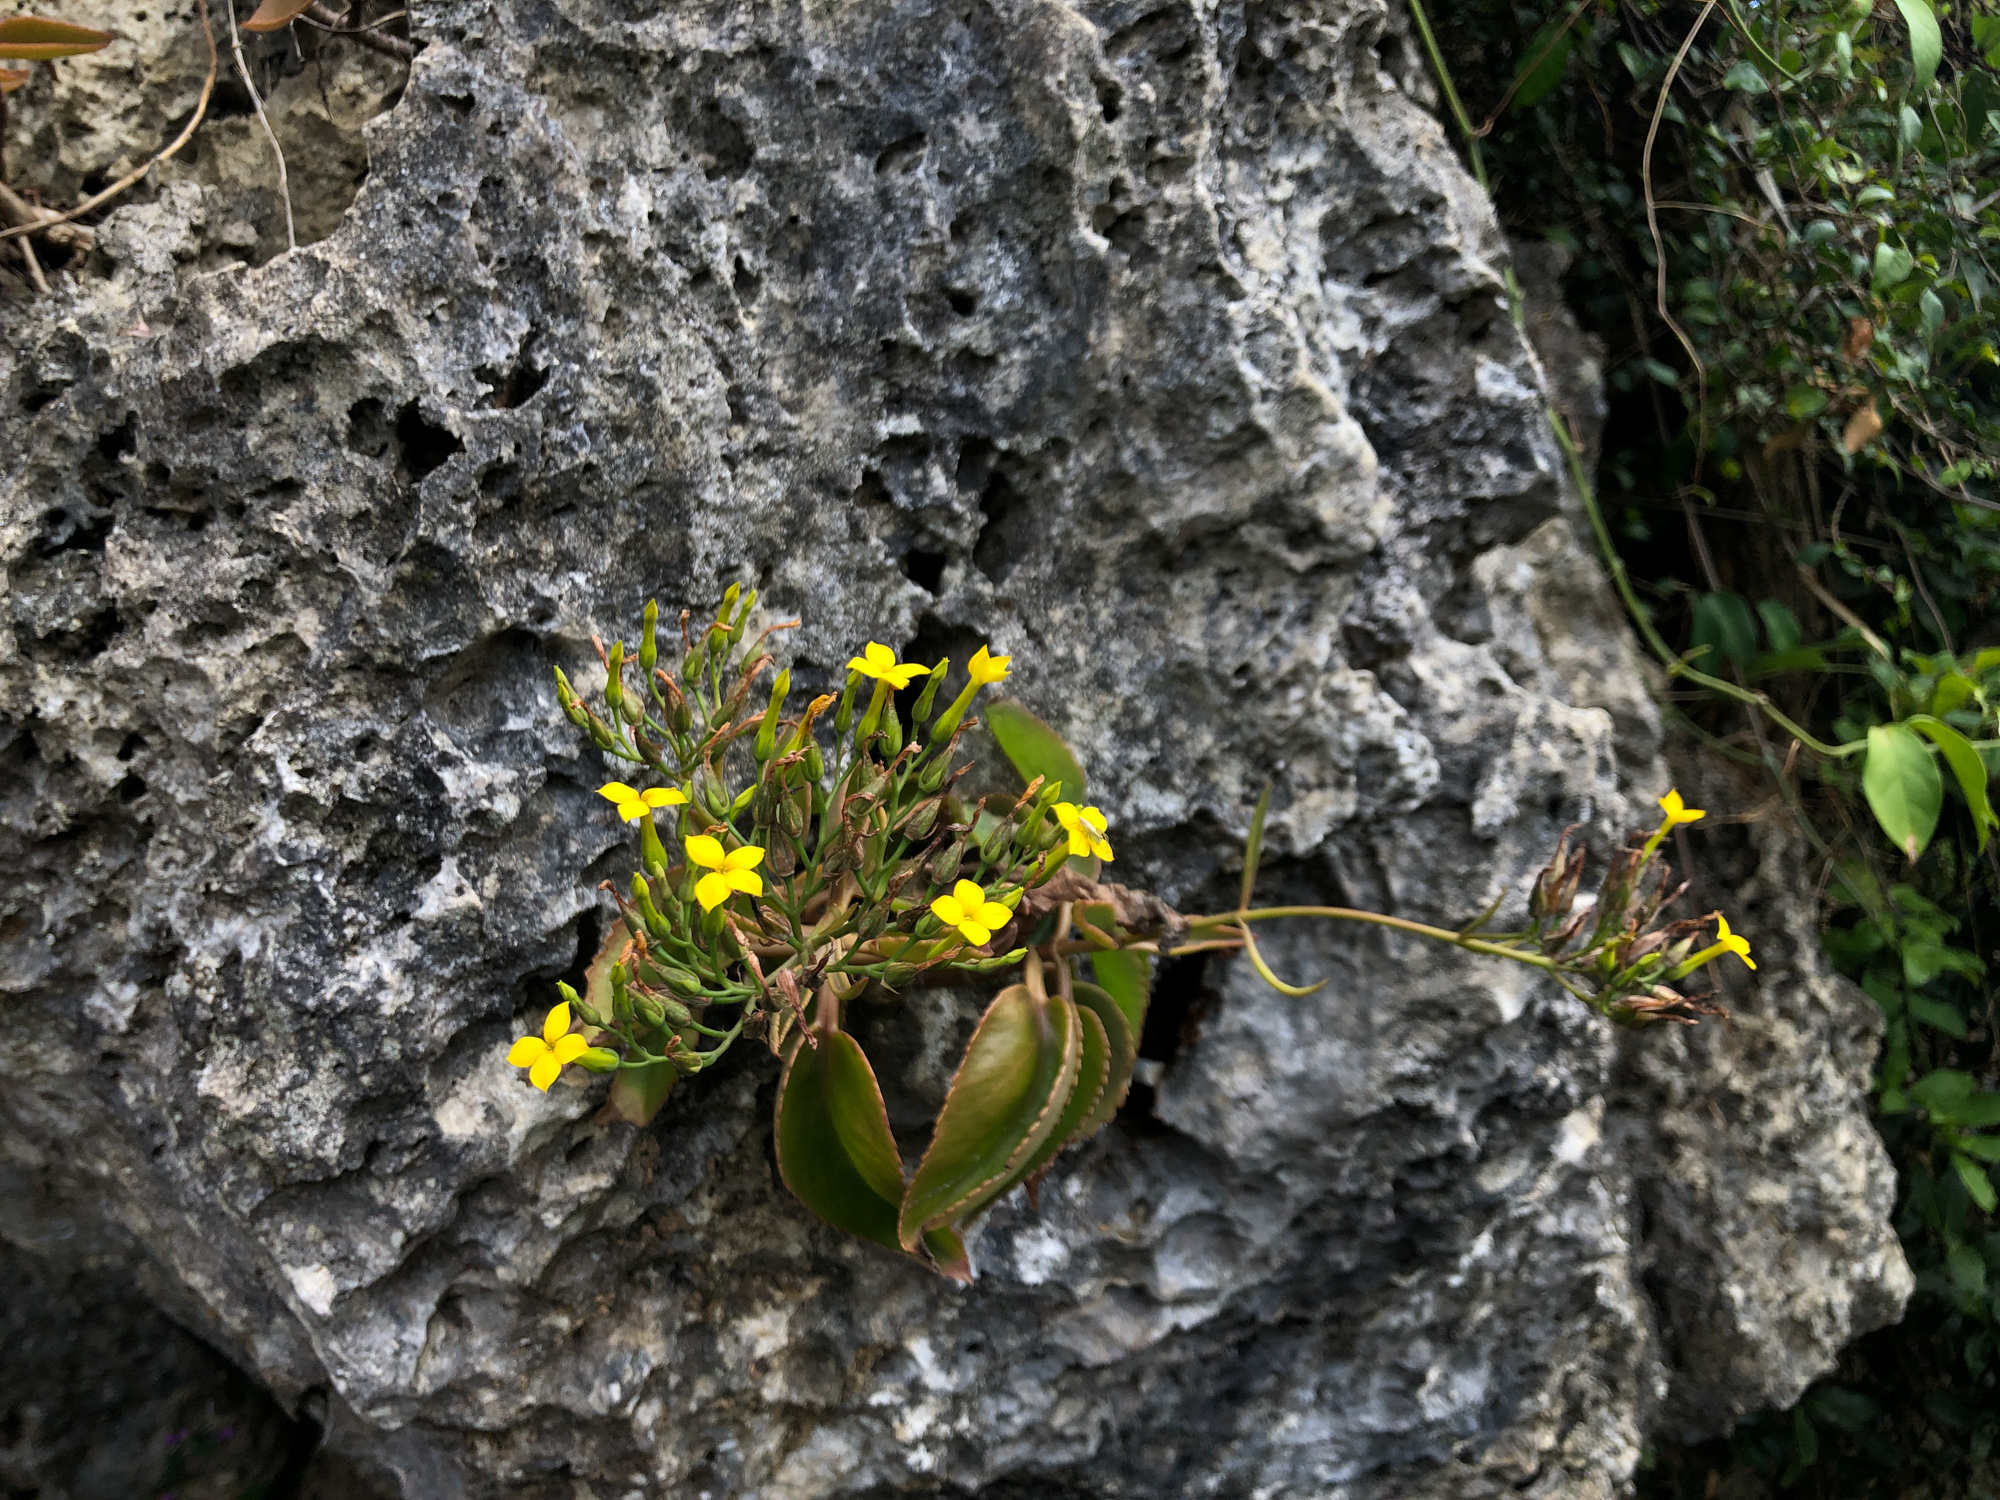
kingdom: Plantae
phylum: Tracheophyta
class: Magnoliopsida
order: Saxifragales
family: Crassulaceae
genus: Kalanchoe
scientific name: Kalanchoe integra
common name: Neverdie
